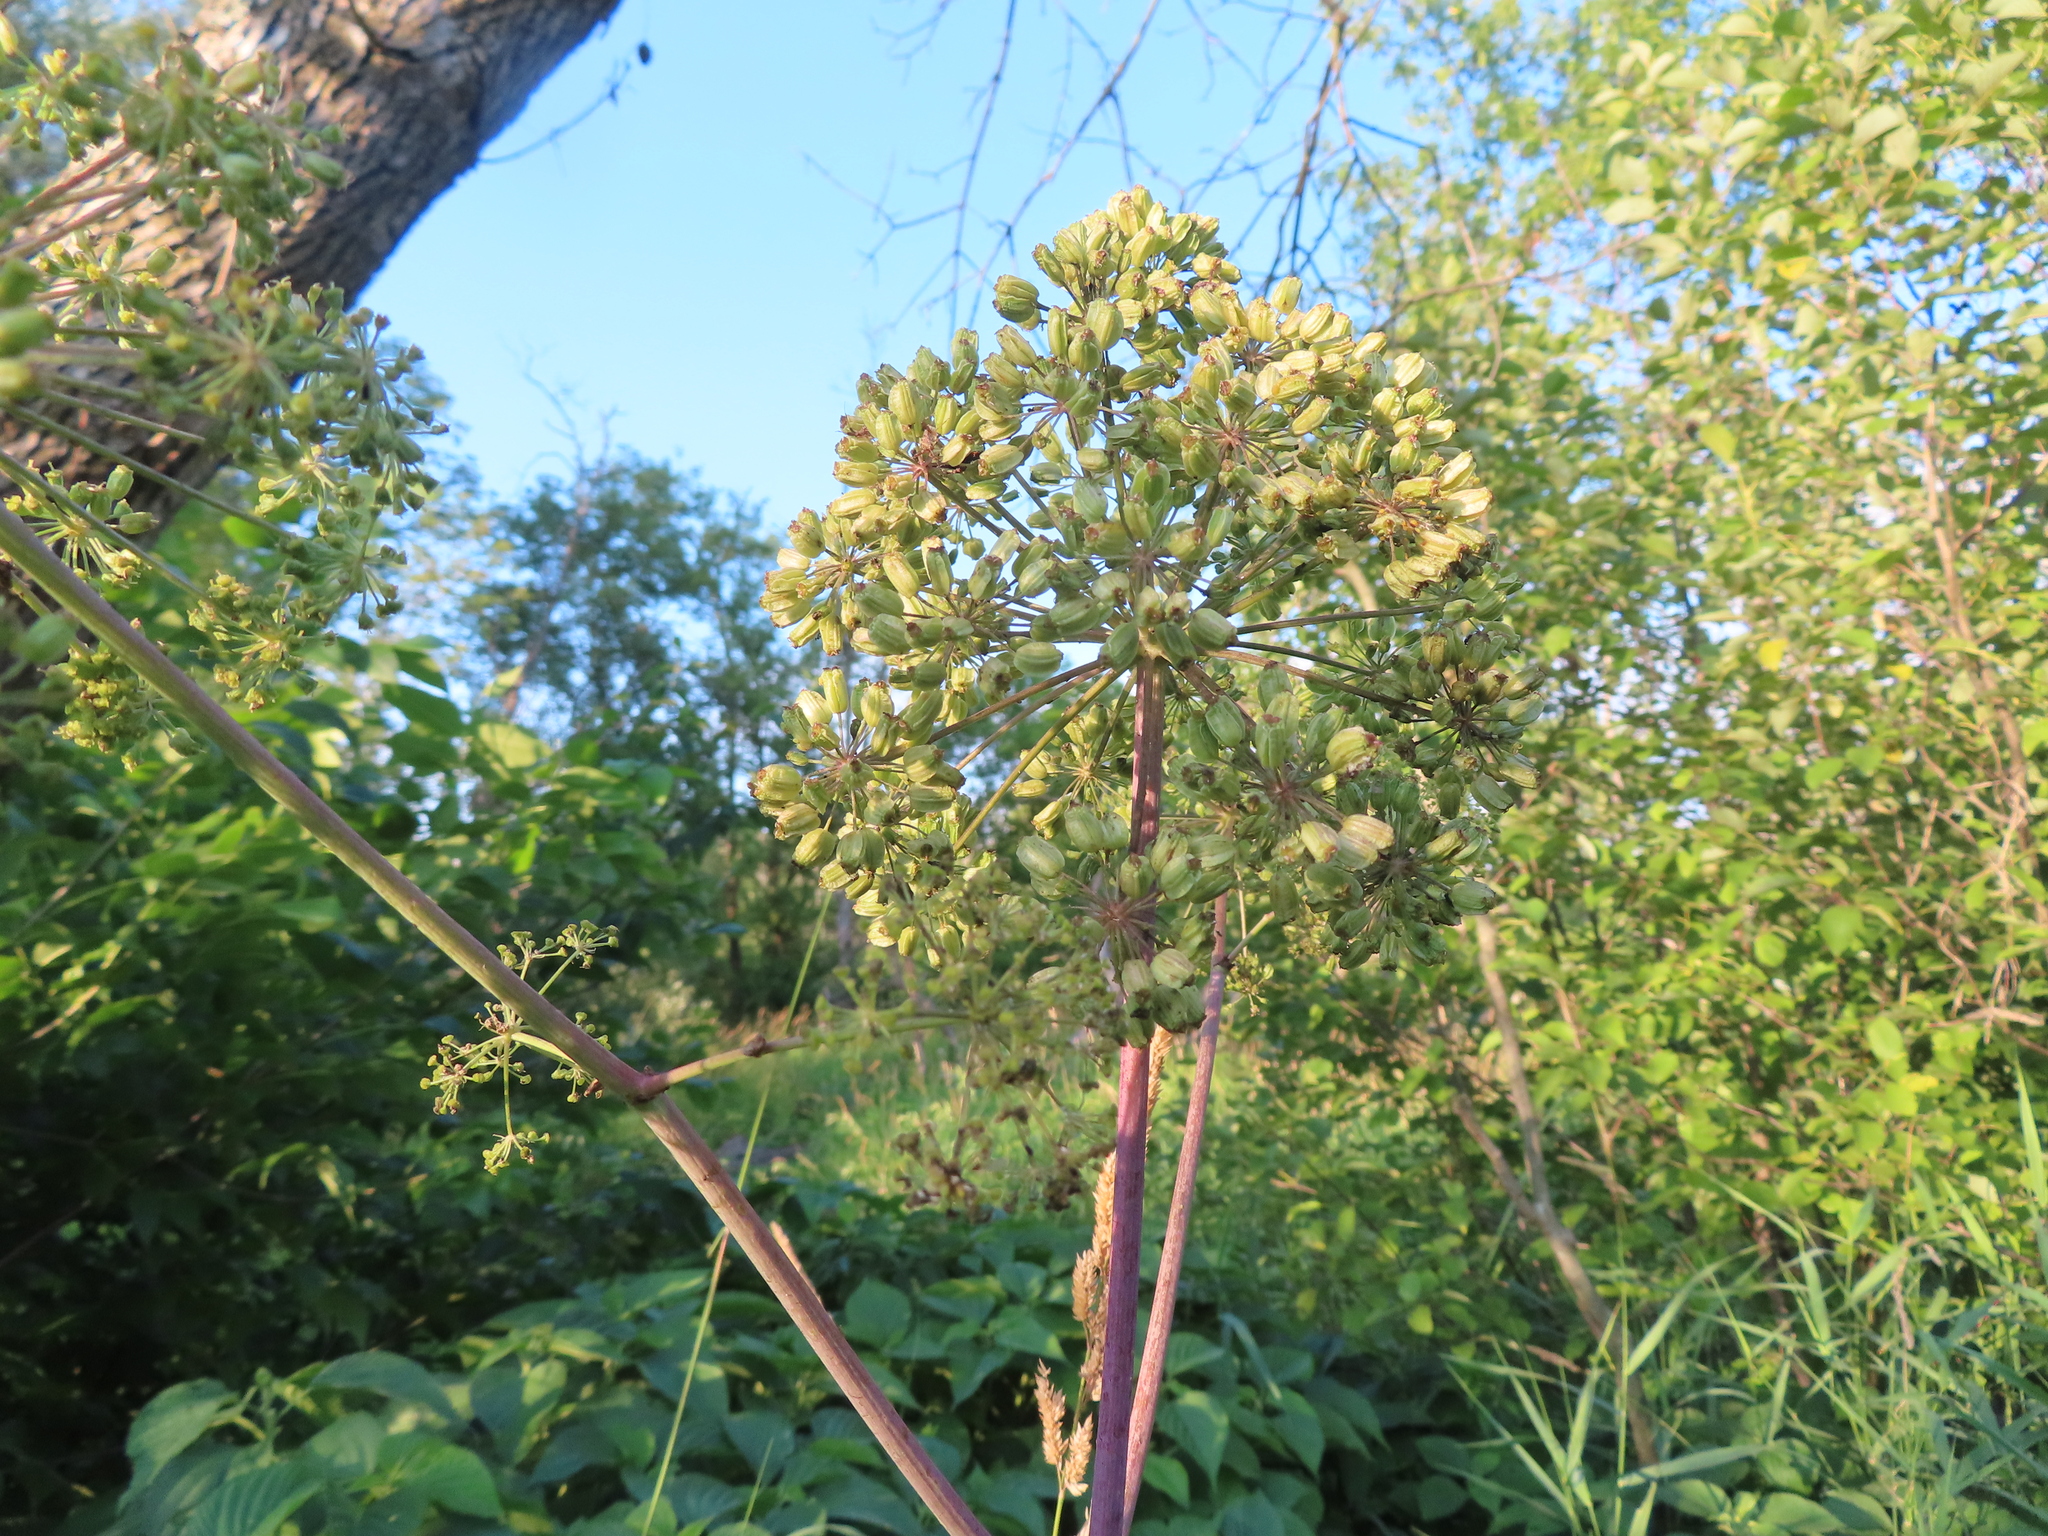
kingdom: Plantae
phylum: Tracheophyta
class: Magnoliopsida
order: Apiales
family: Apiaceae
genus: Angelica
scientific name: Angelica atropurpurea
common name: Great angelica
